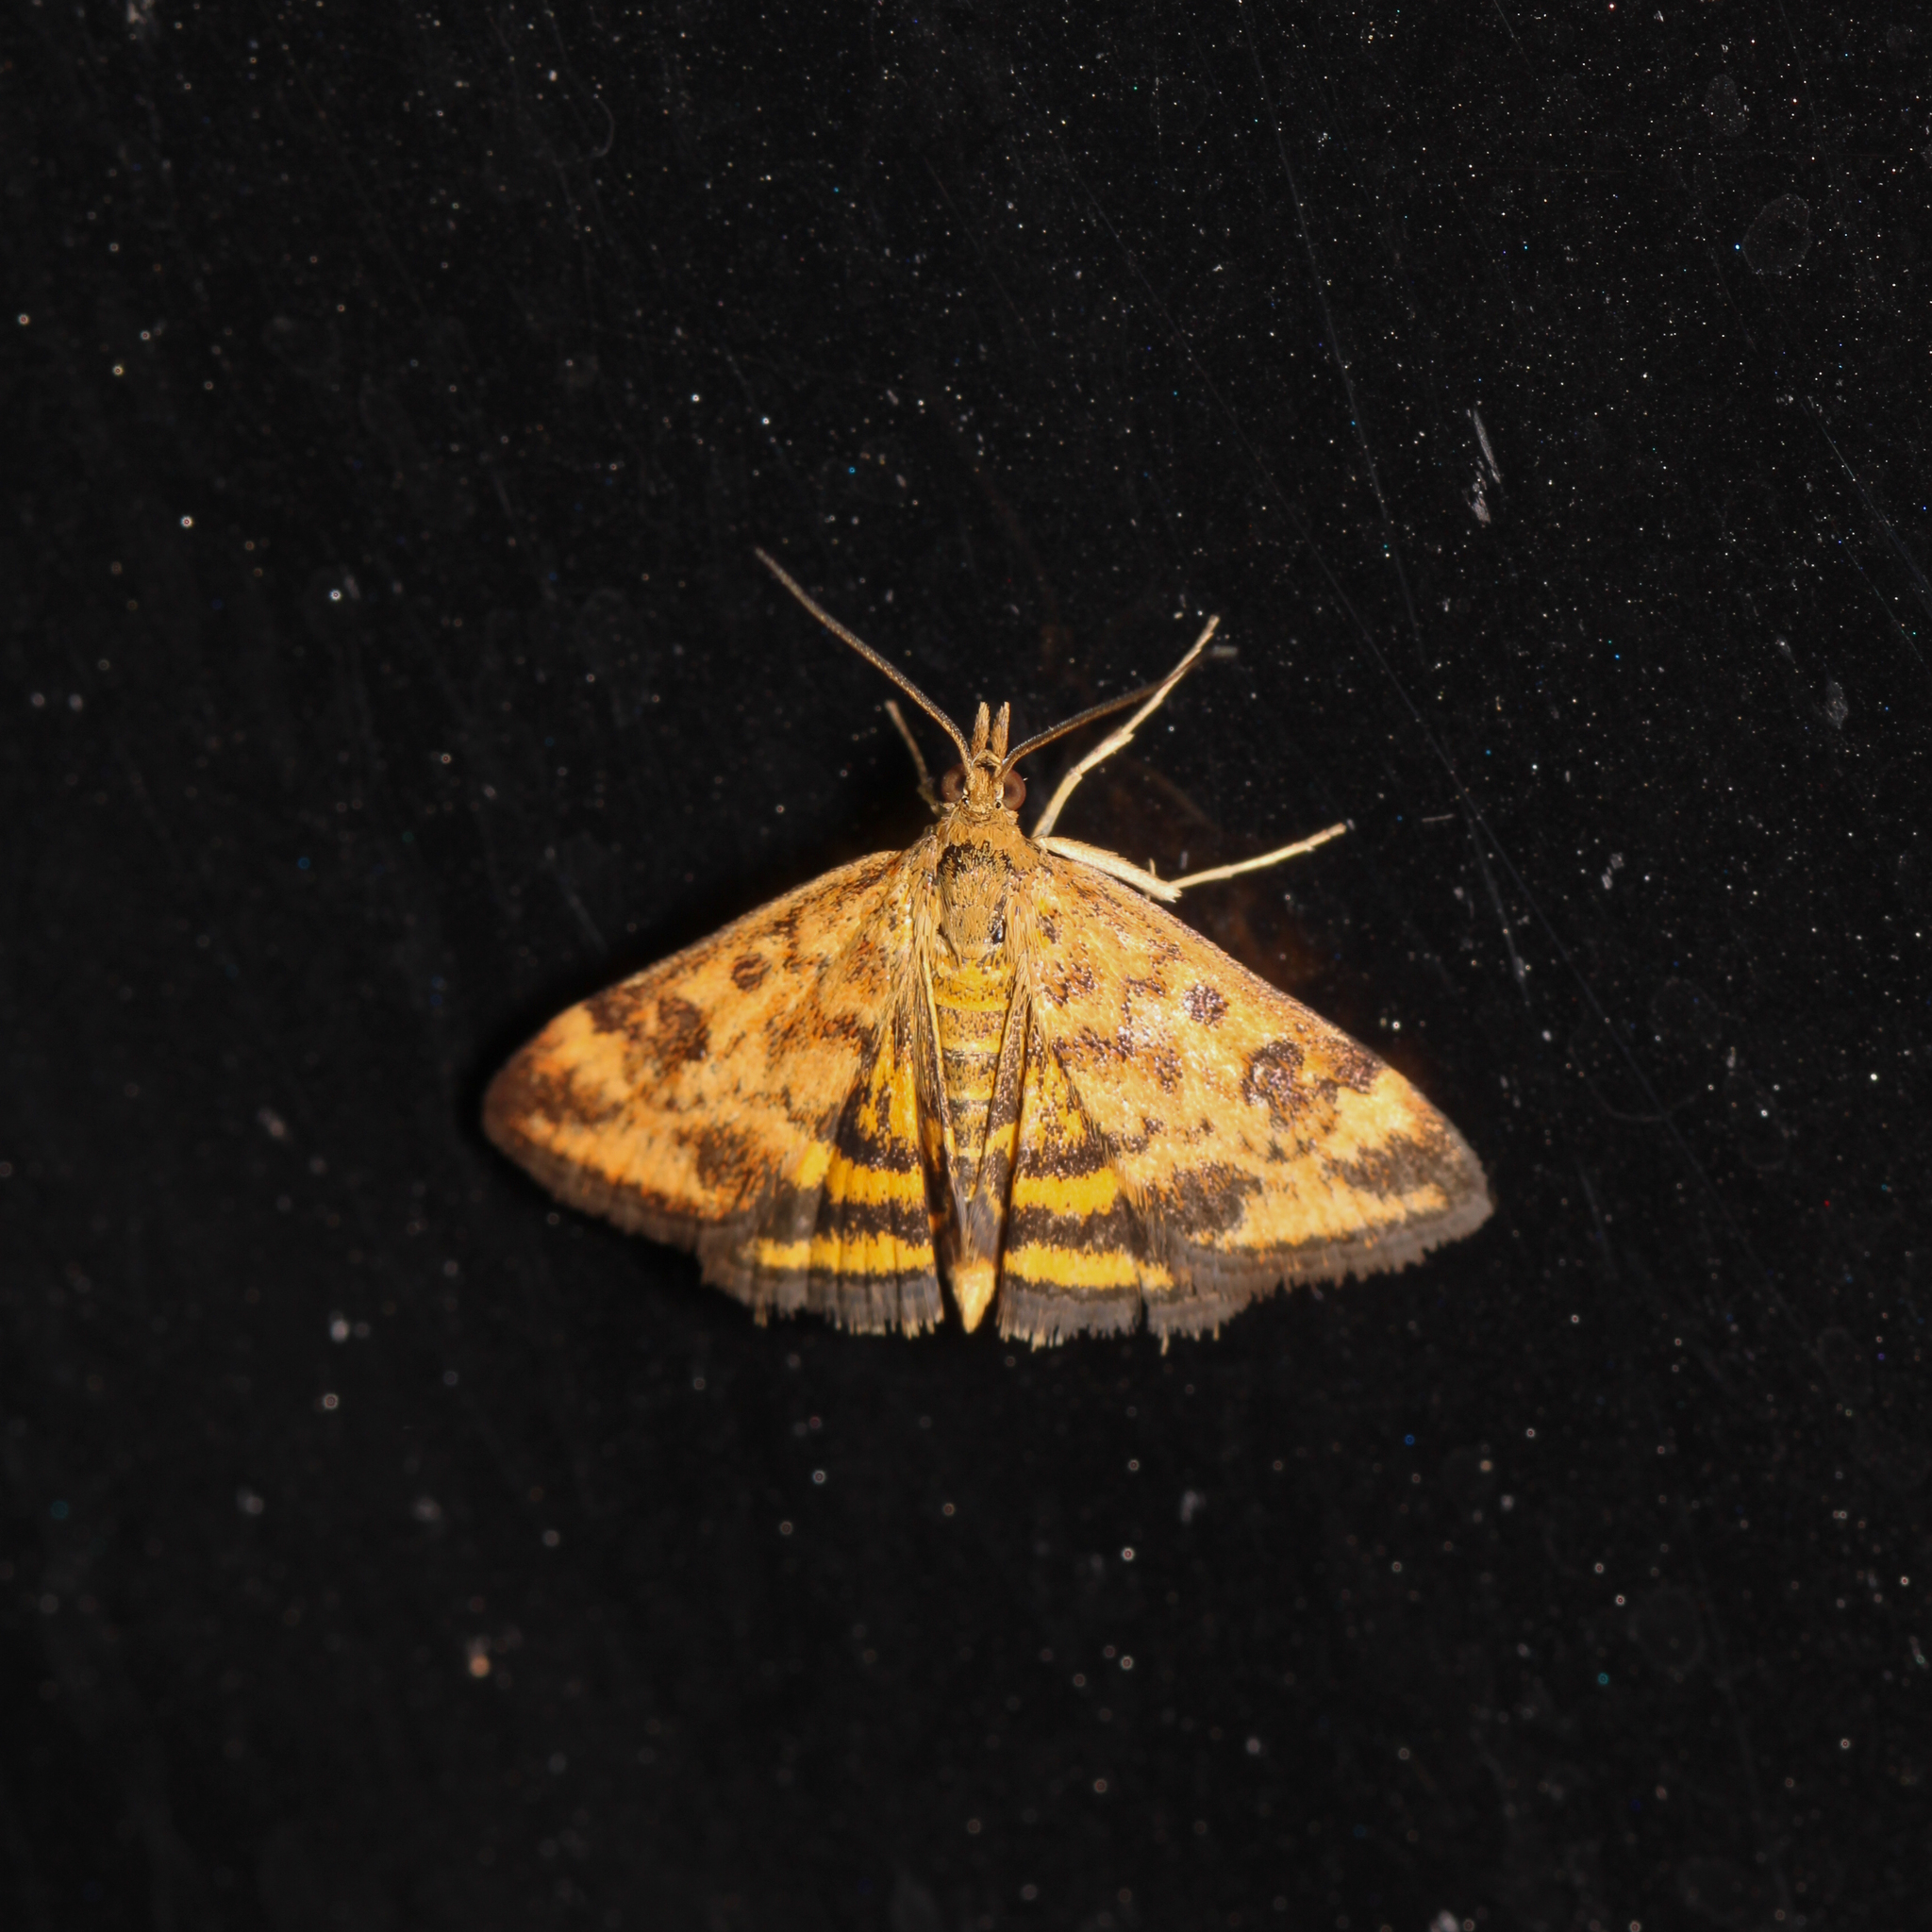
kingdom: Animalia
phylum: Arthropoda
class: Insecta
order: Lepidoptera
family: Crambidae
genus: Pyrausta
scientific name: Pyrausta subsequalis
